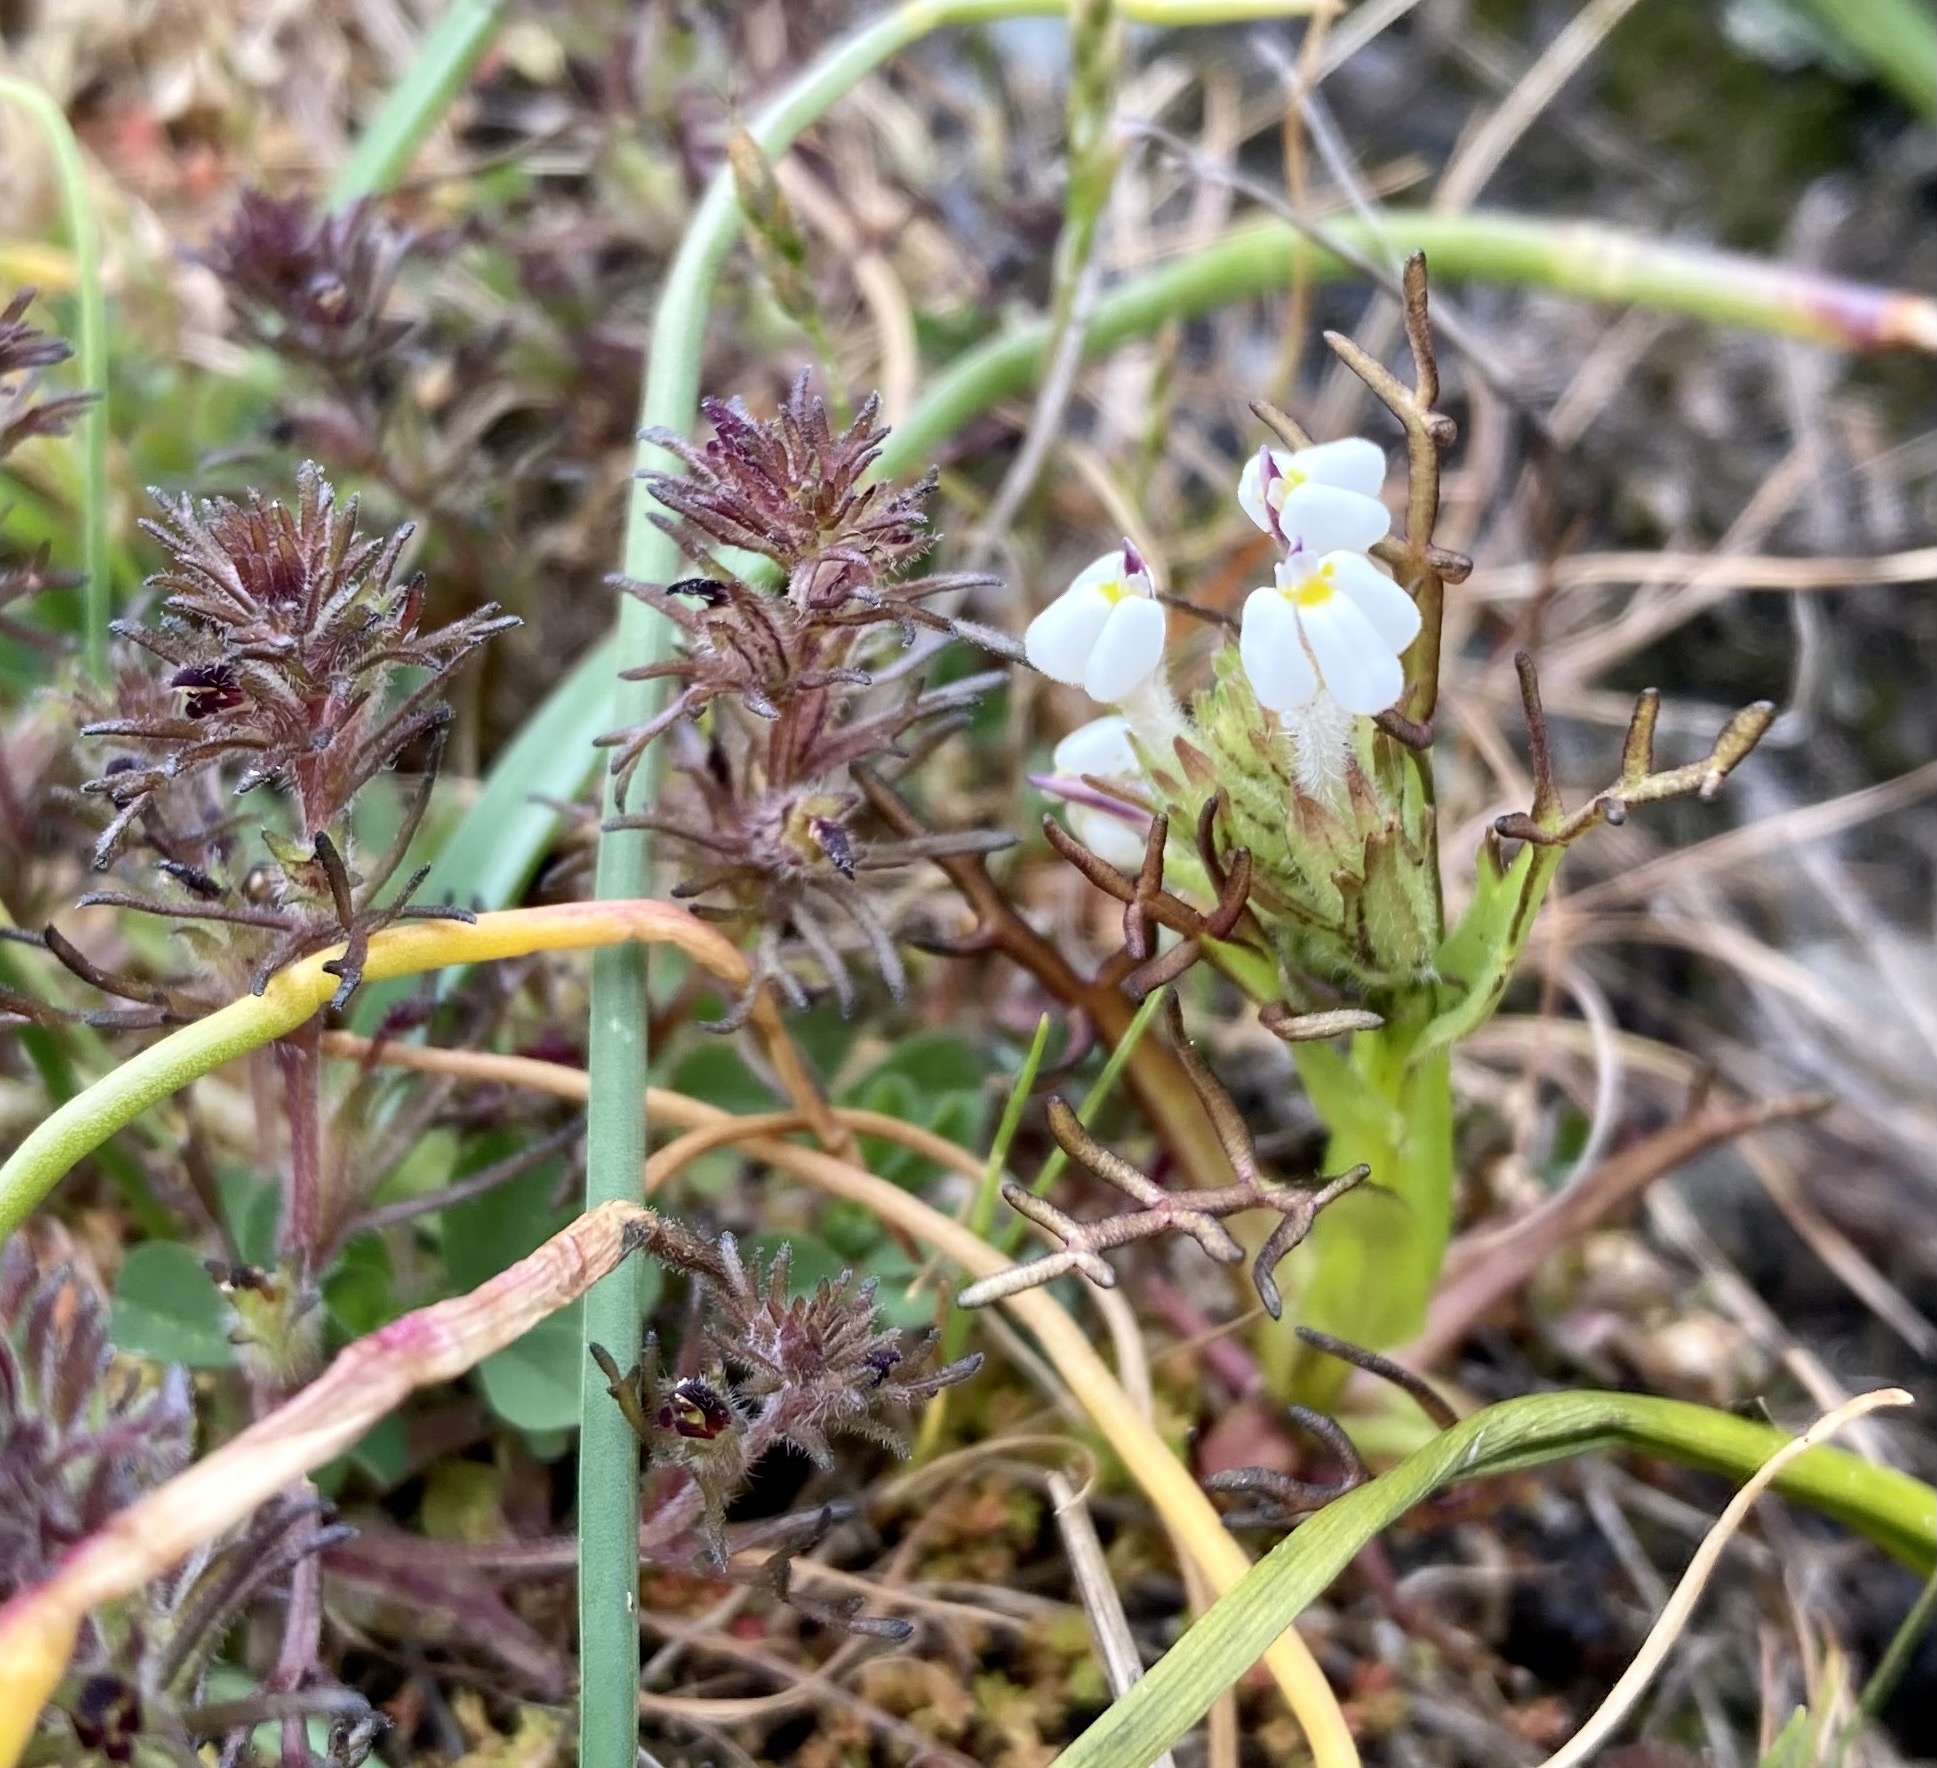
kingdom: Plantae
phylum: Tracheophyta
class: Magnoliopsida
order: Lamiales
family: Orobanchaceae
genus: Triphysaria
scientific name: Triphysaria versicolor
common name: Bearded false owl-clover
